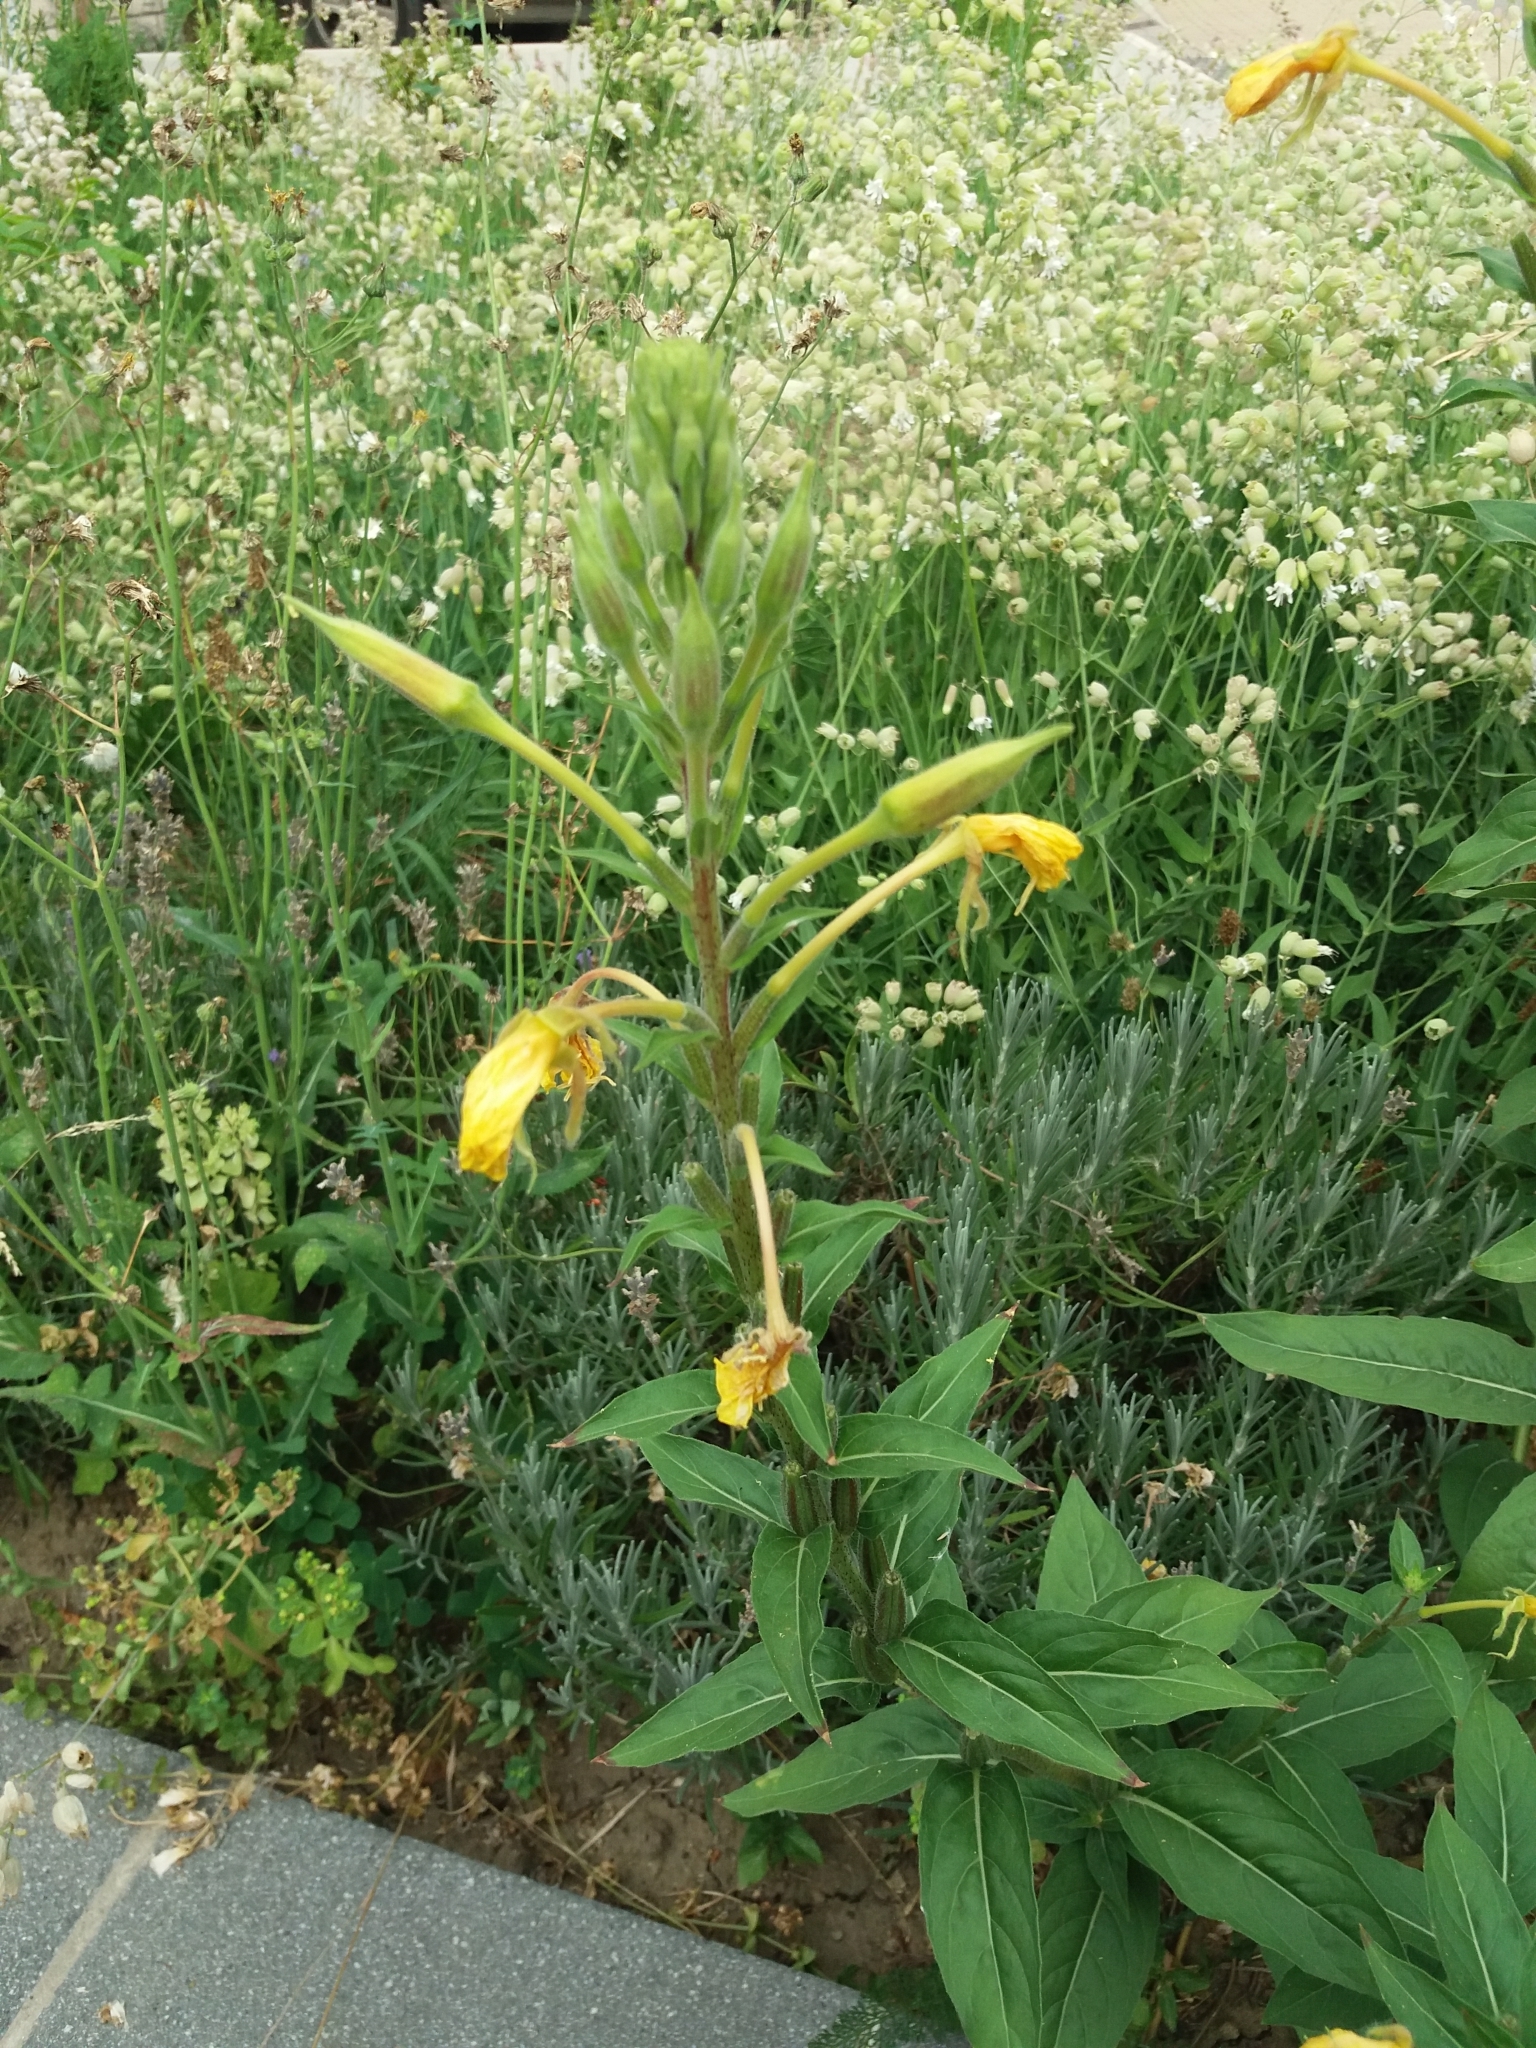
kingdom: Plantae
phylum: Tracheophyta
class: Magnoliopsida
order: Myrtales
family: Onagraceae
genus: Oenothera
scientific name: Oenothera biennis
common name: Common evening-primrose
